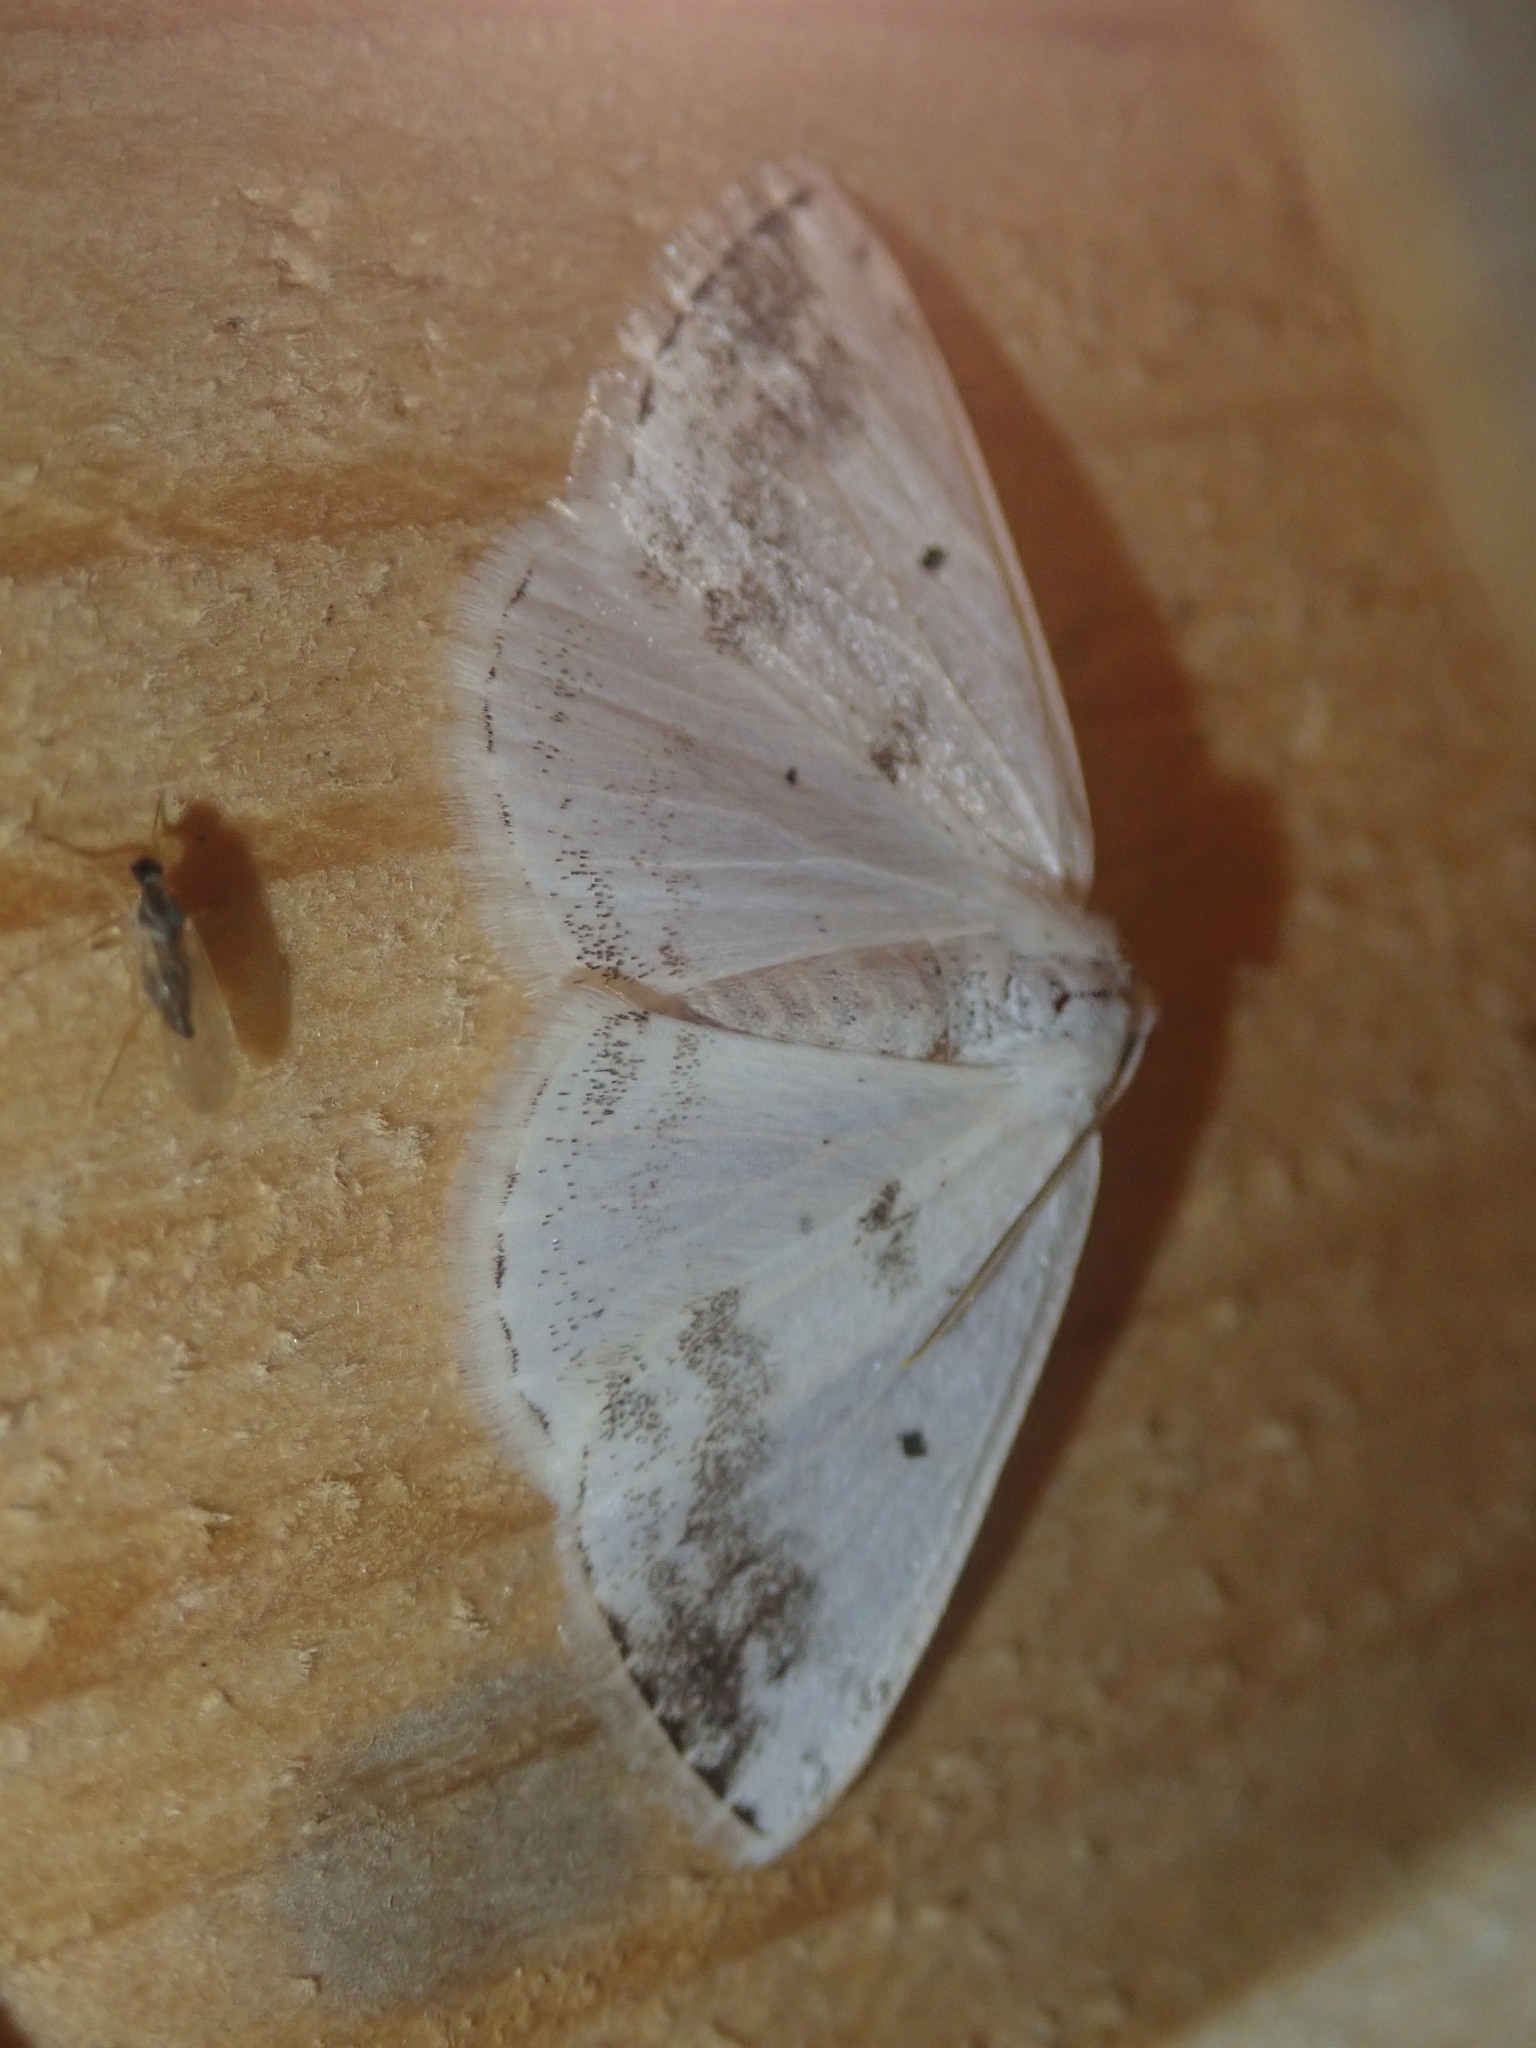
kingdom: Animalia
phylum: Arthropoda
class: Insecta
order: Lepidoptera
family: Geometridae
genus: Lomographa
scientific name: Lomographa temerata
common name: Clouded silver
